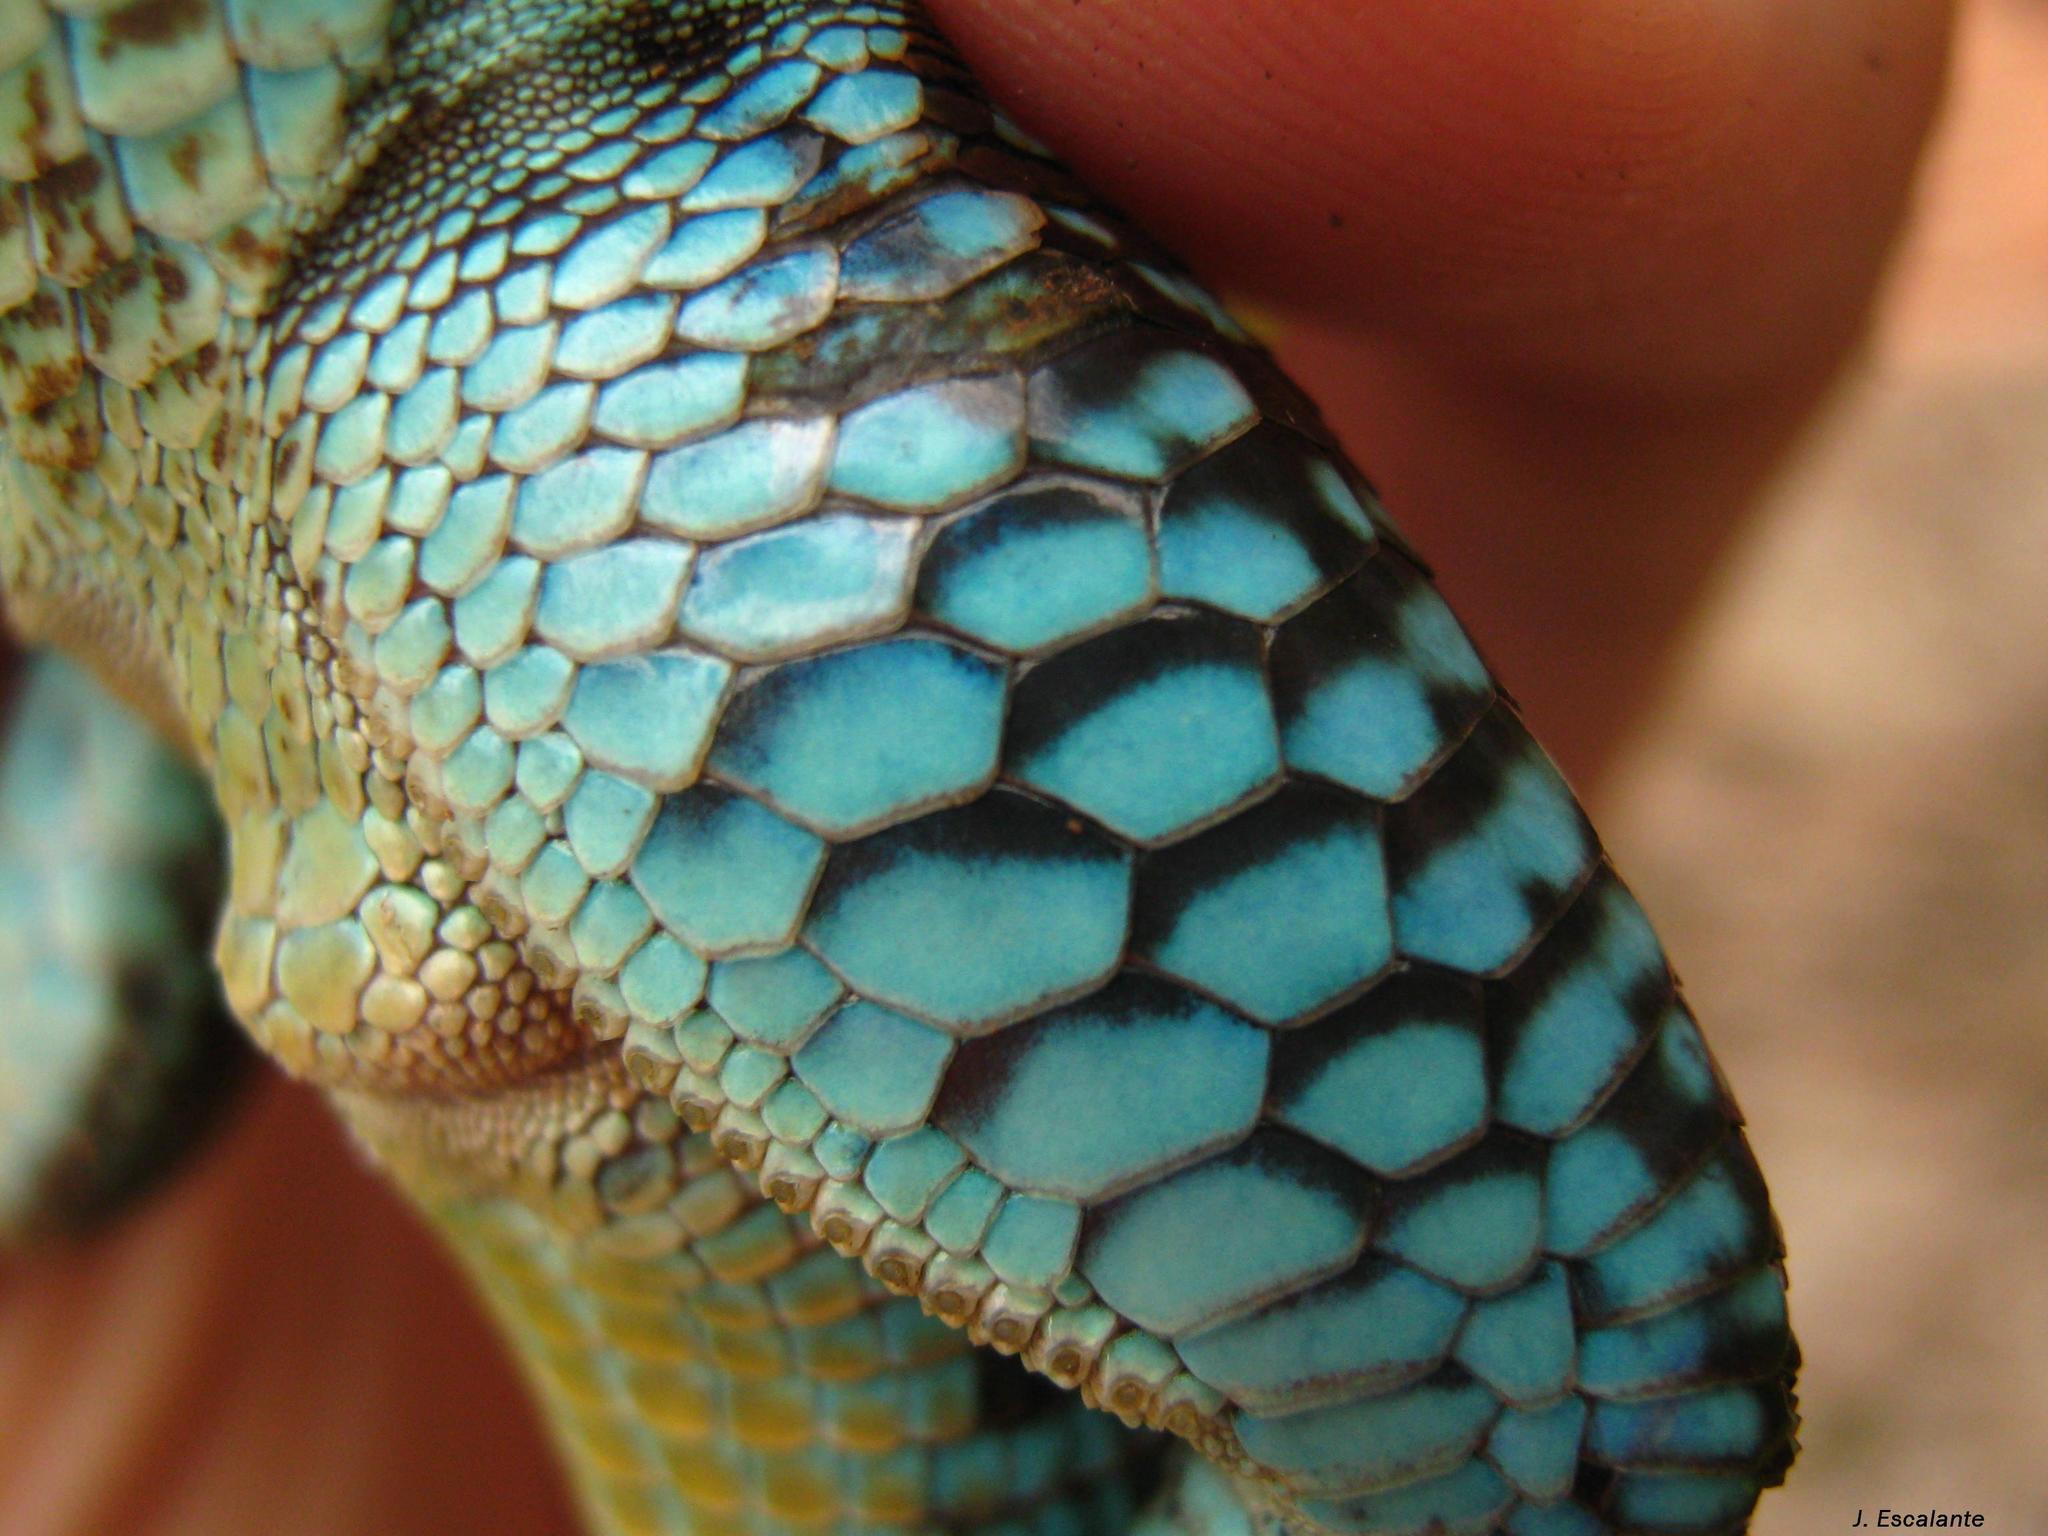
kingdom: Animalia
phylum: Chordata
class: Squamata
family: Teiidae
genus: Holcosus
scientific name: Holcosus amphigrammus
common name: Rainbow ameiva
